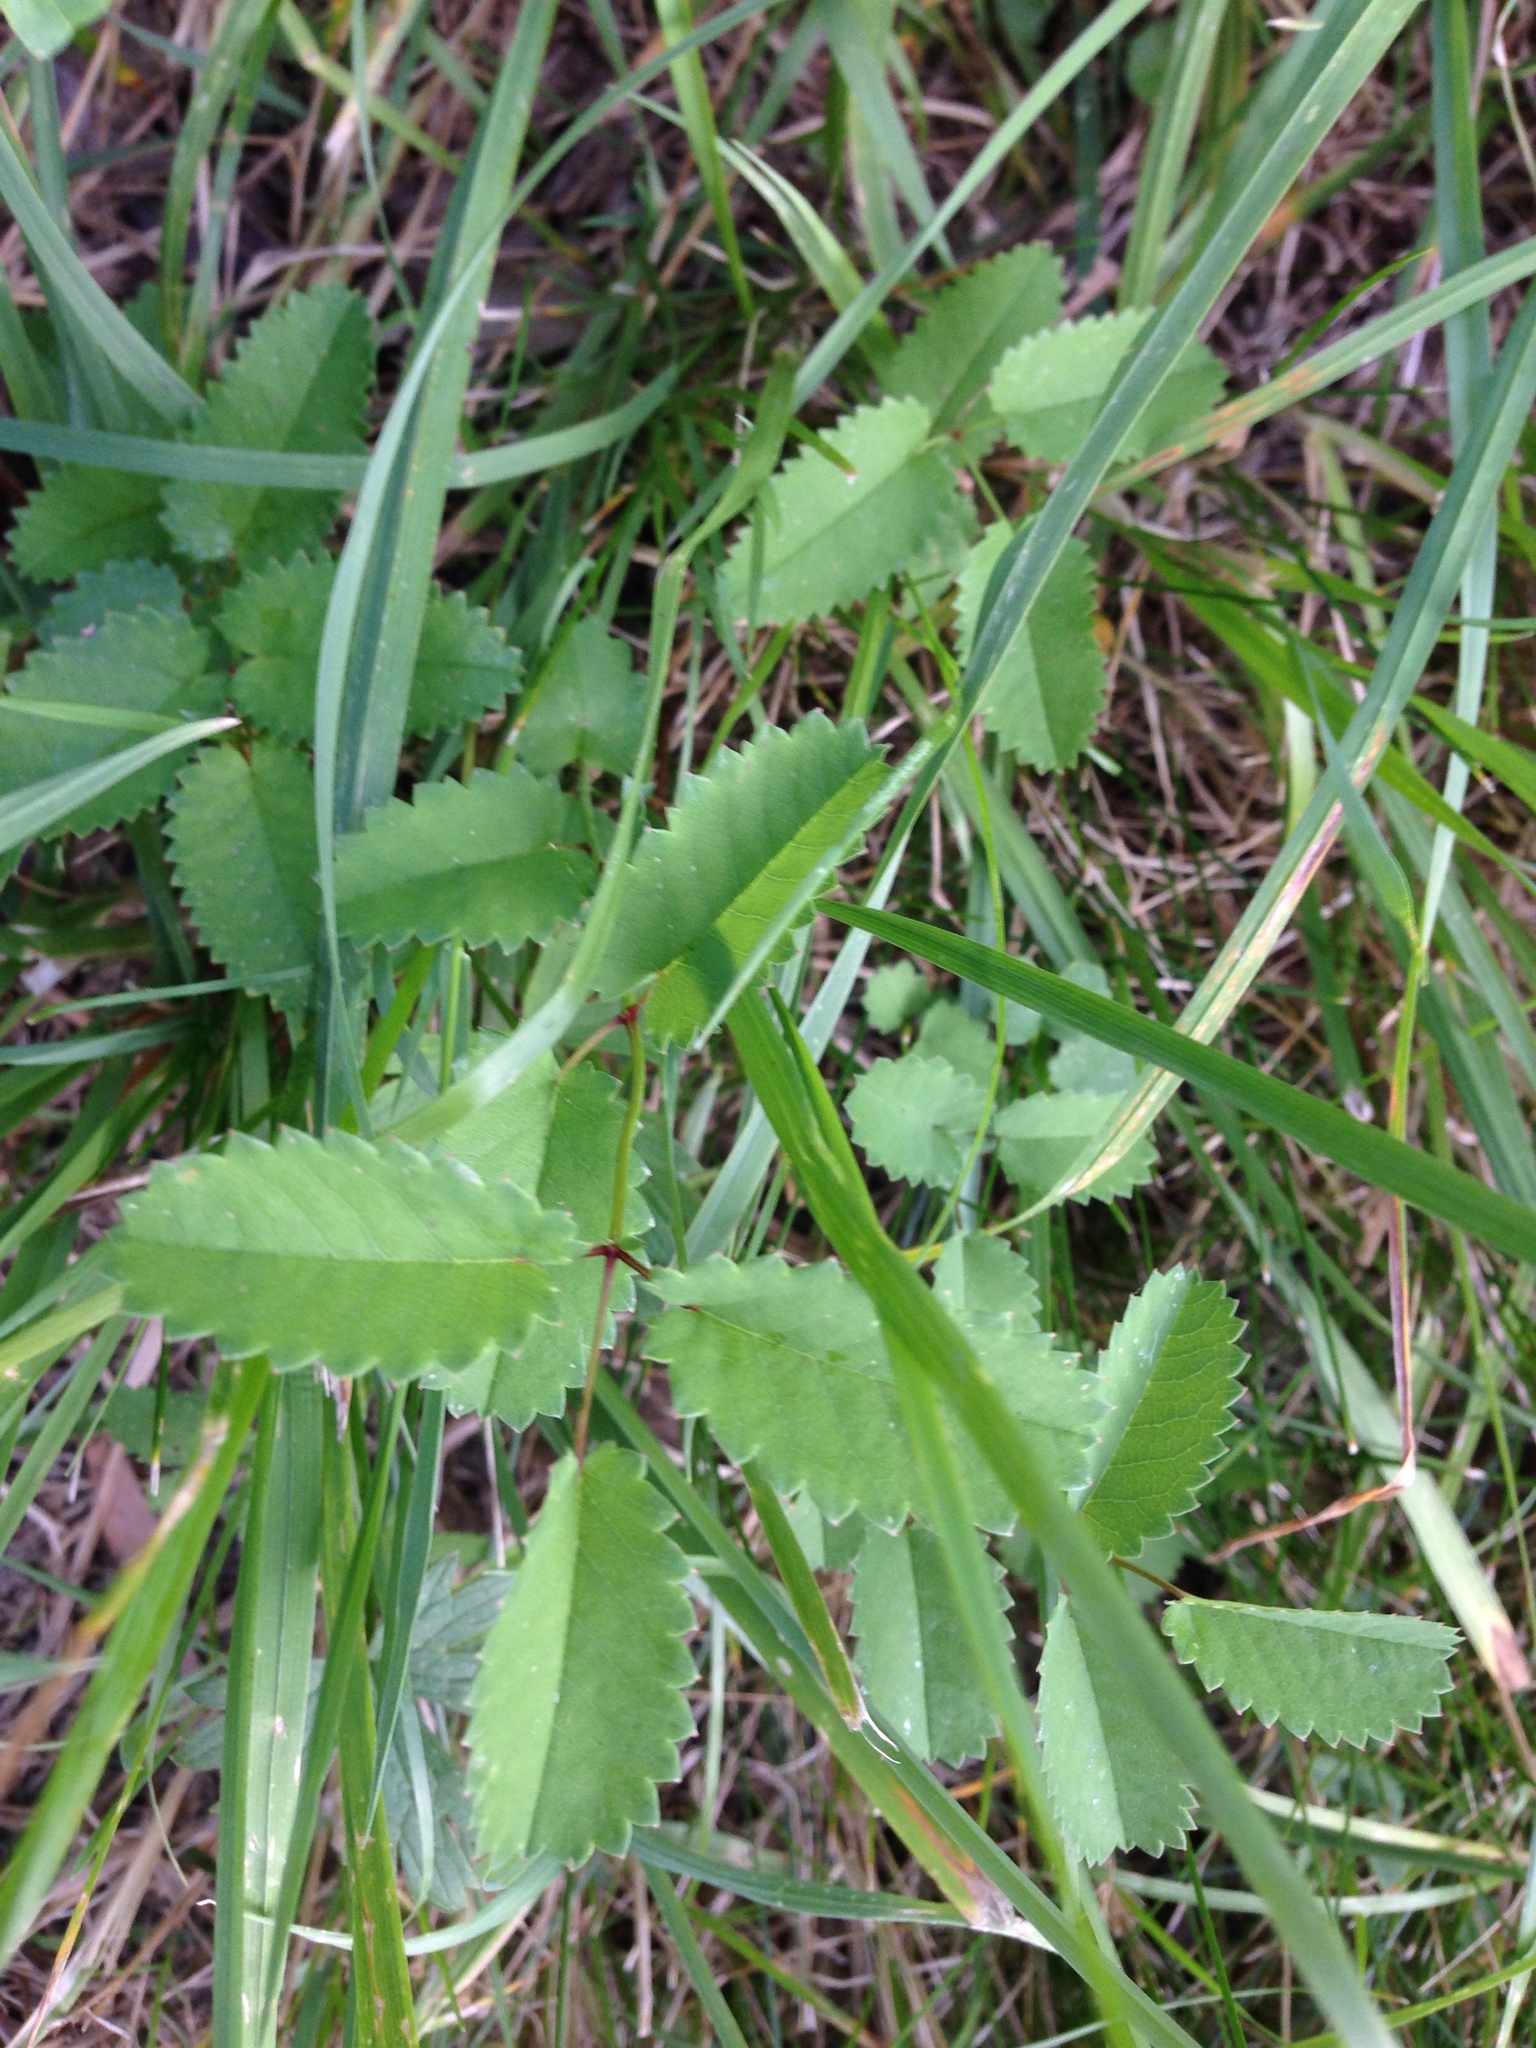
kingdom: Plantae
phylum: Tracheophyta
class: Magnoliopsida
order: Rosales
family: Rosaceae
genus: Sanguisorba
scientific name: Sanguisorba officinalis
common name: Great burnet
